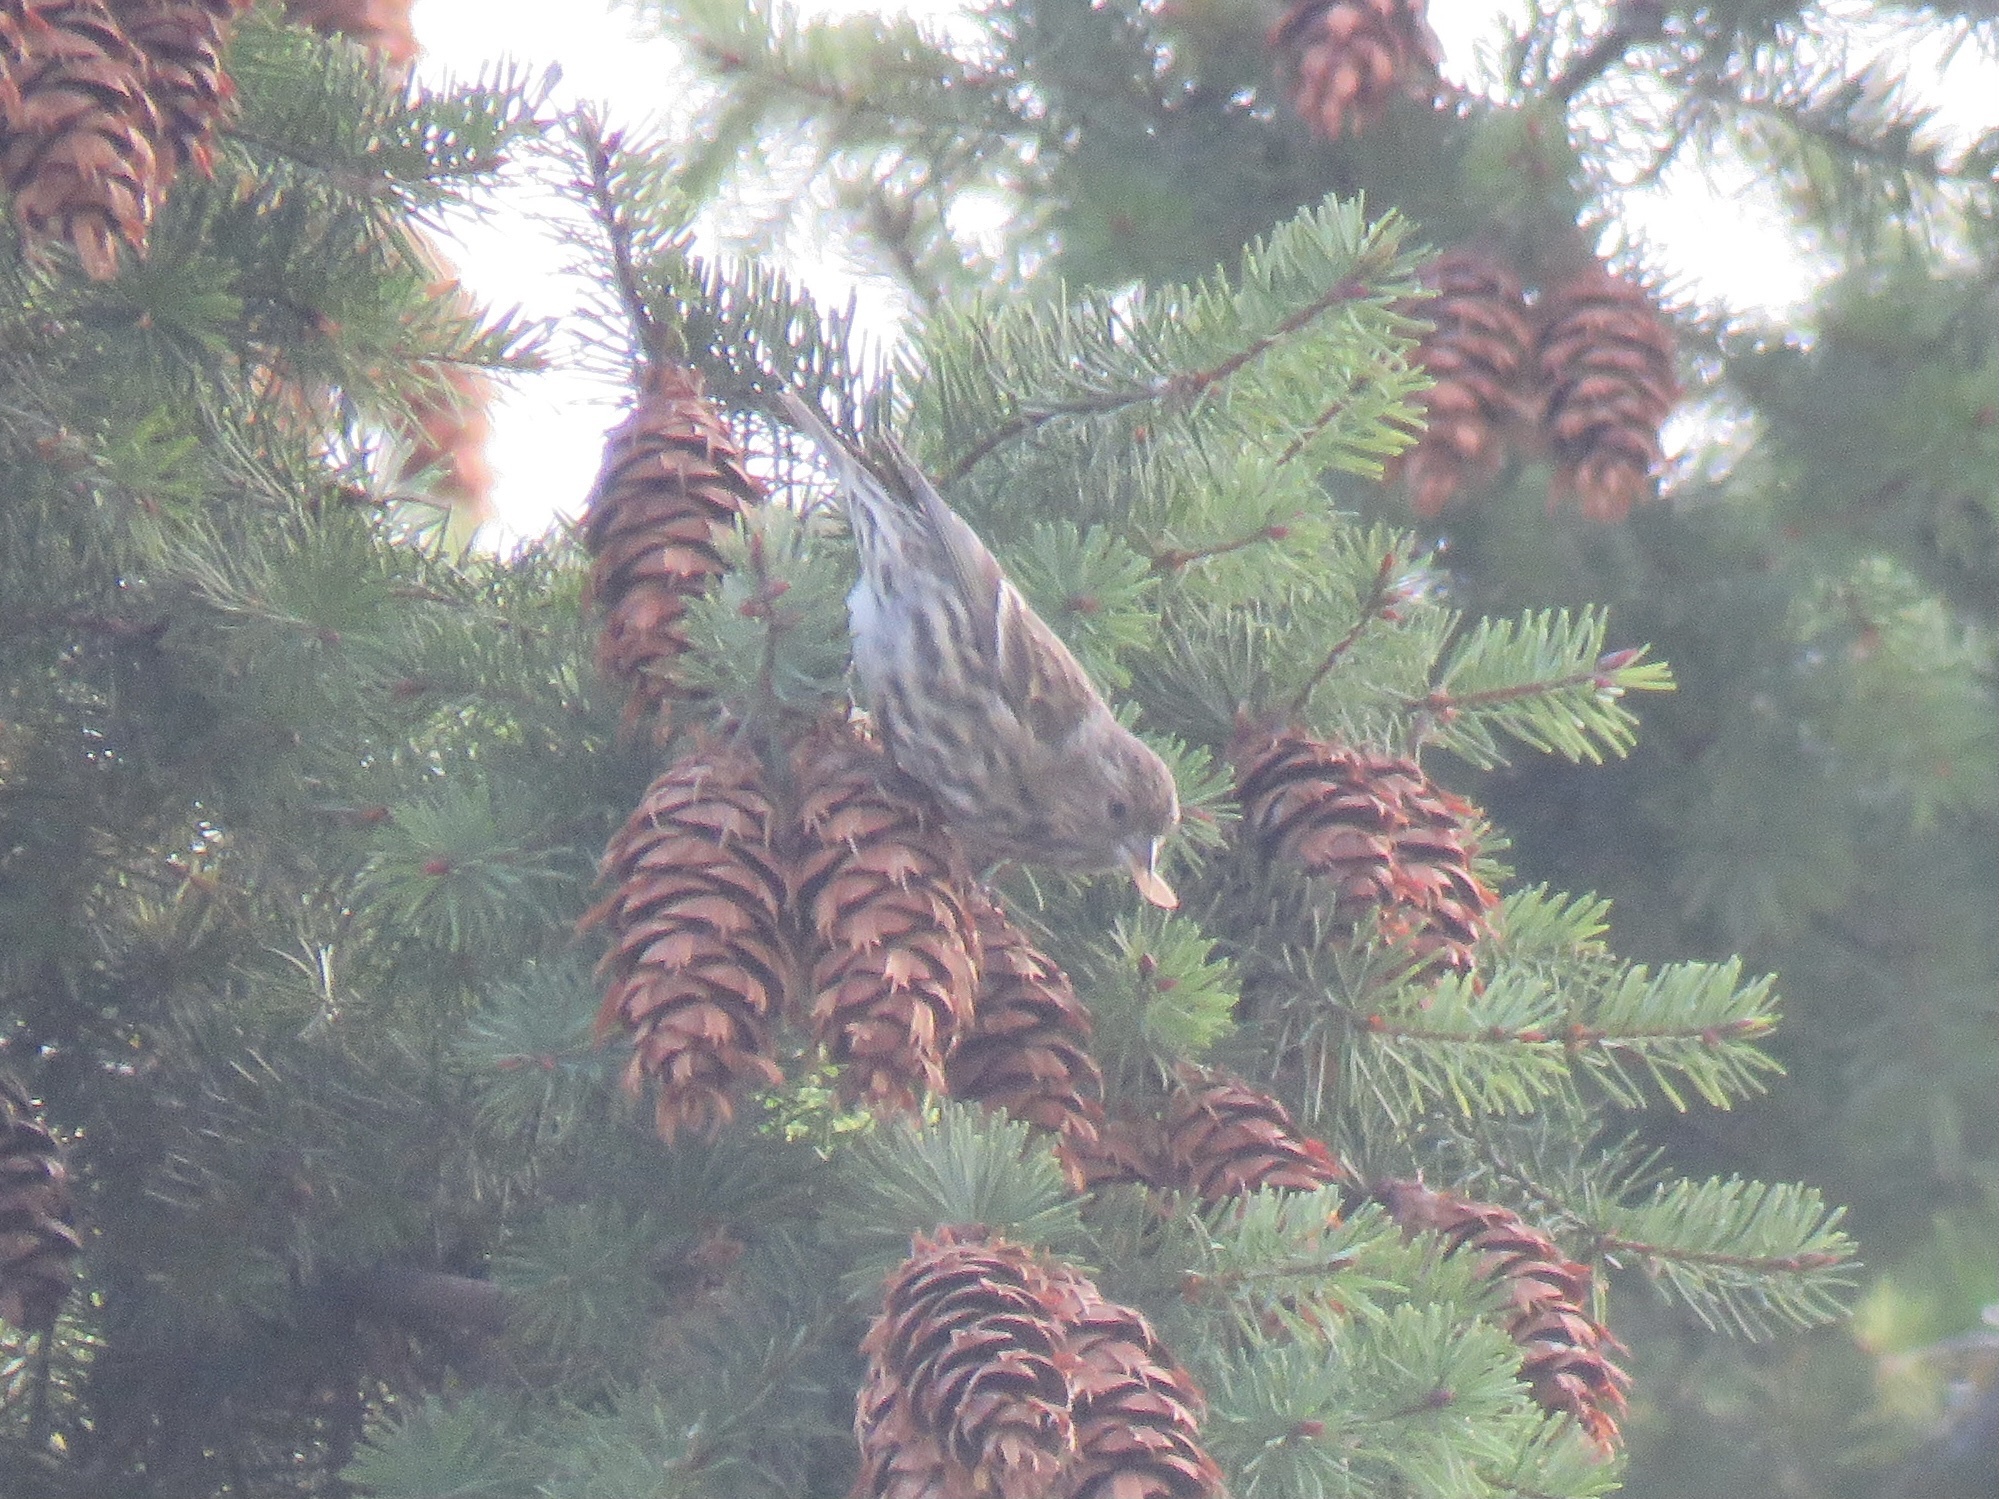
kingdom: Animalia
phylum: Chordata
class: Aves
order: Passeriformes
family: Fringillidae
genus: Spinus
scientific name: Spinus pinus
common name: Pine siskin
